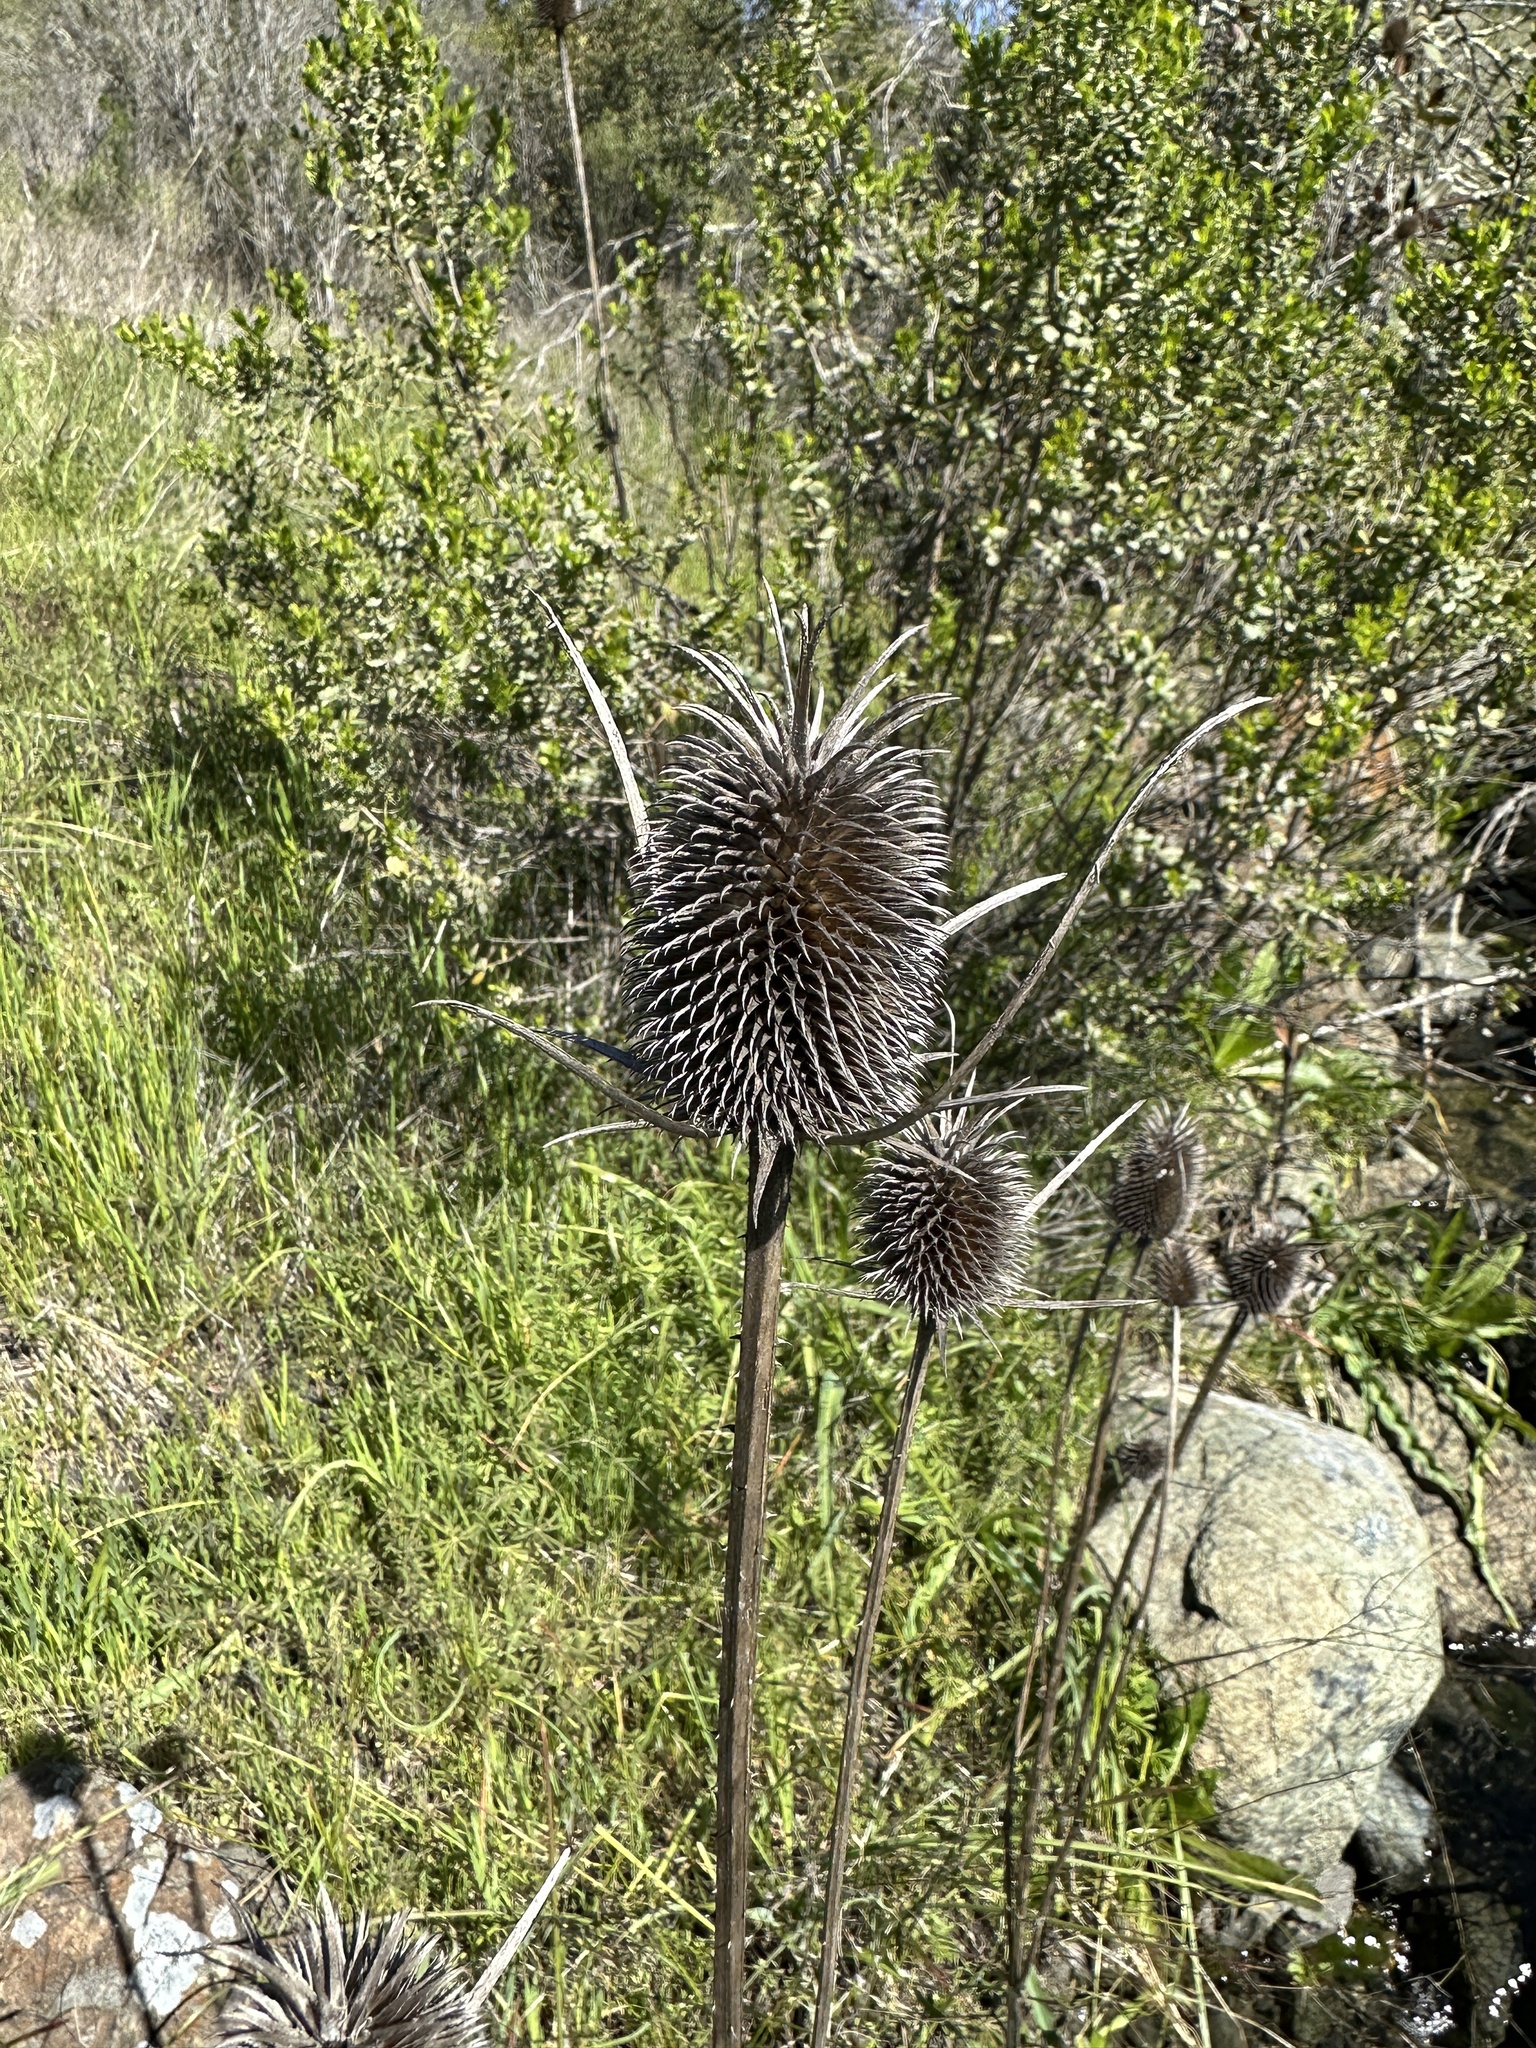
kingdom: Plantae
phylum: Tracheophyta
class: Magnoliopsida
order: Dipsacales
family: Caprifoliaceae
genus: Dipsacus
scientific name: Dipsacus sativus
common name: Fuller's teasel
